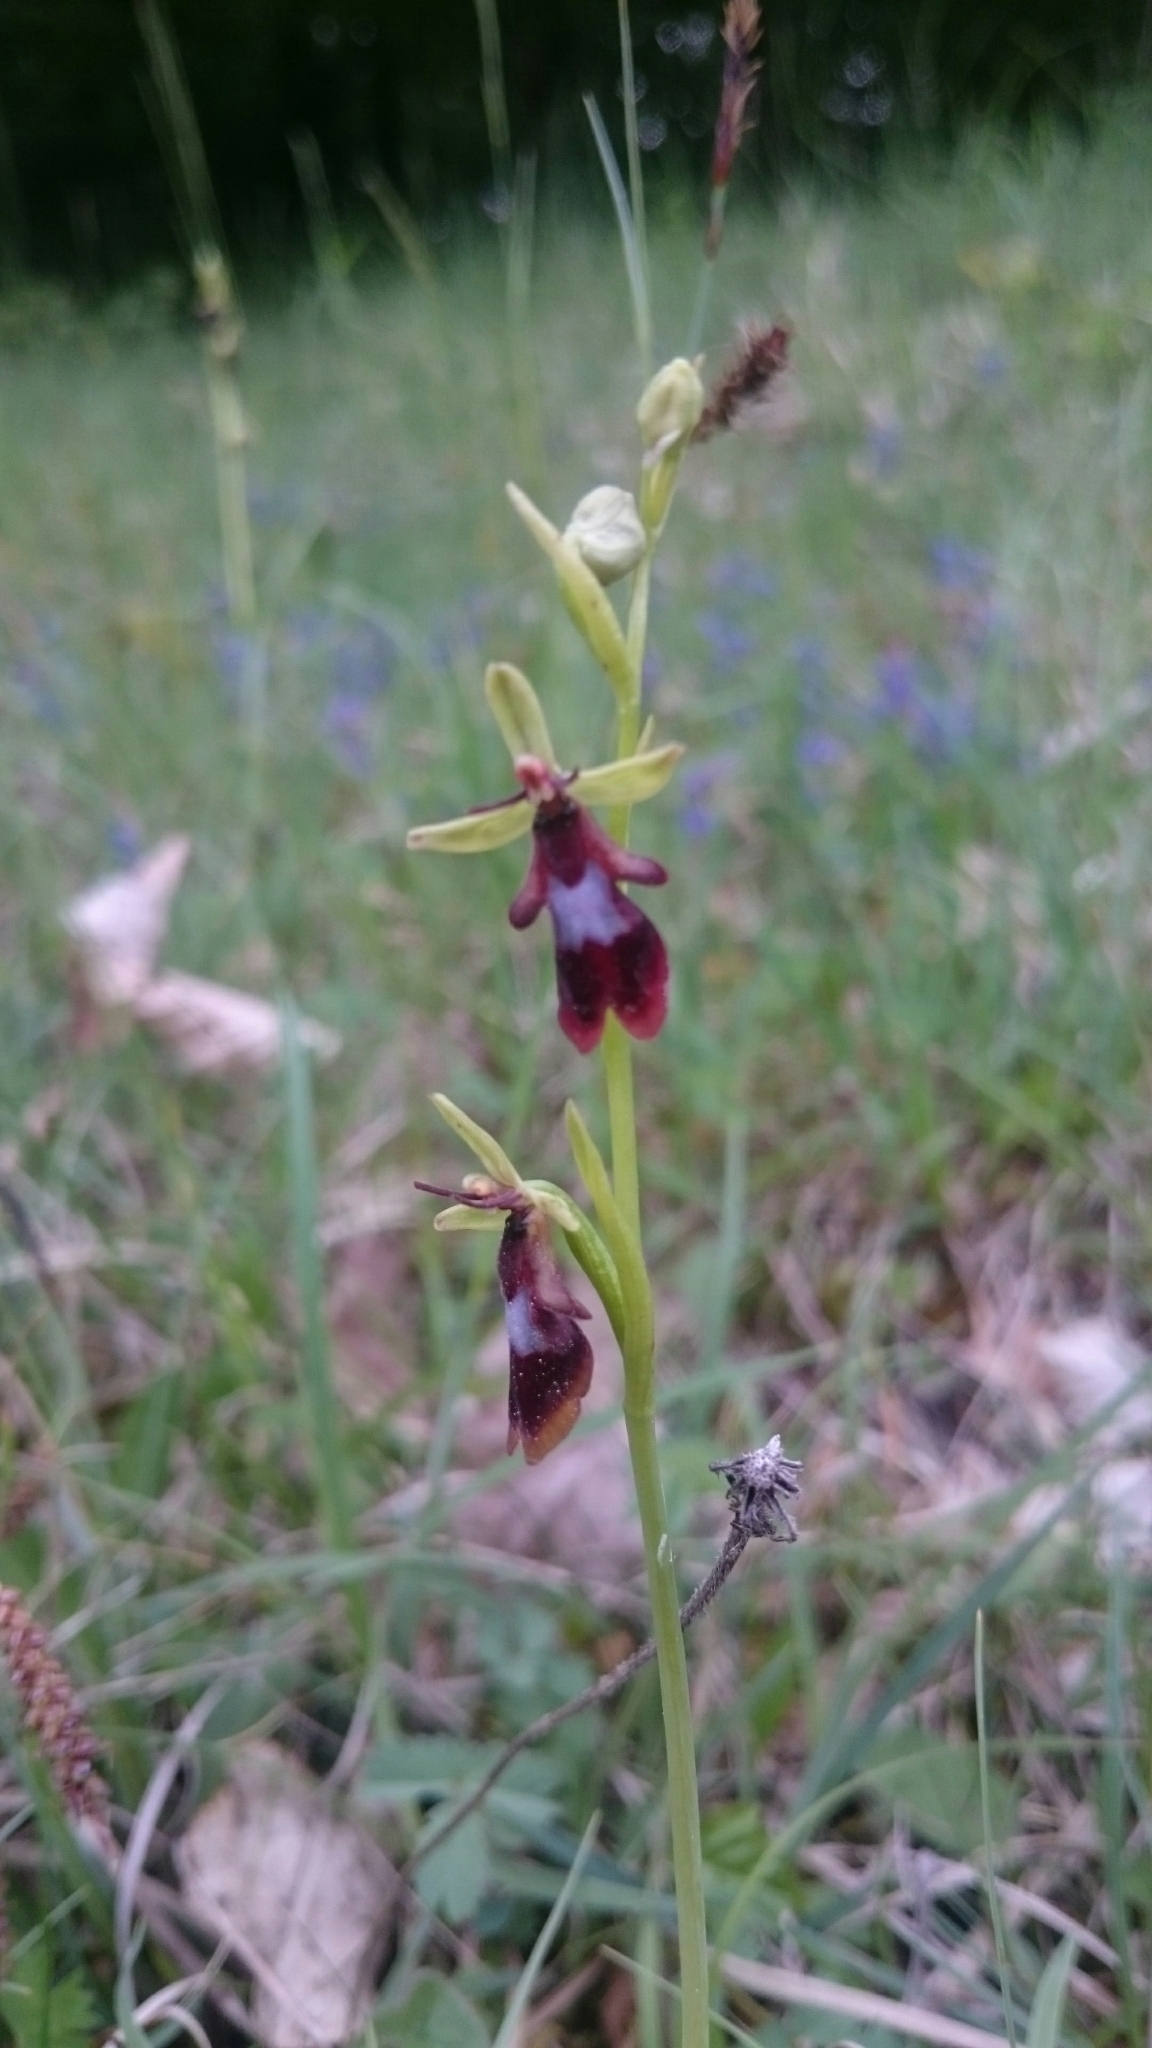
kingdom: Plantae
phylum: Tracheophyta
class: Liliopsida
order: Asparagales
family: Orchidaceae
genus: Ophrys
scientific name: Ophrys insectifera
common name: Fly orchid
